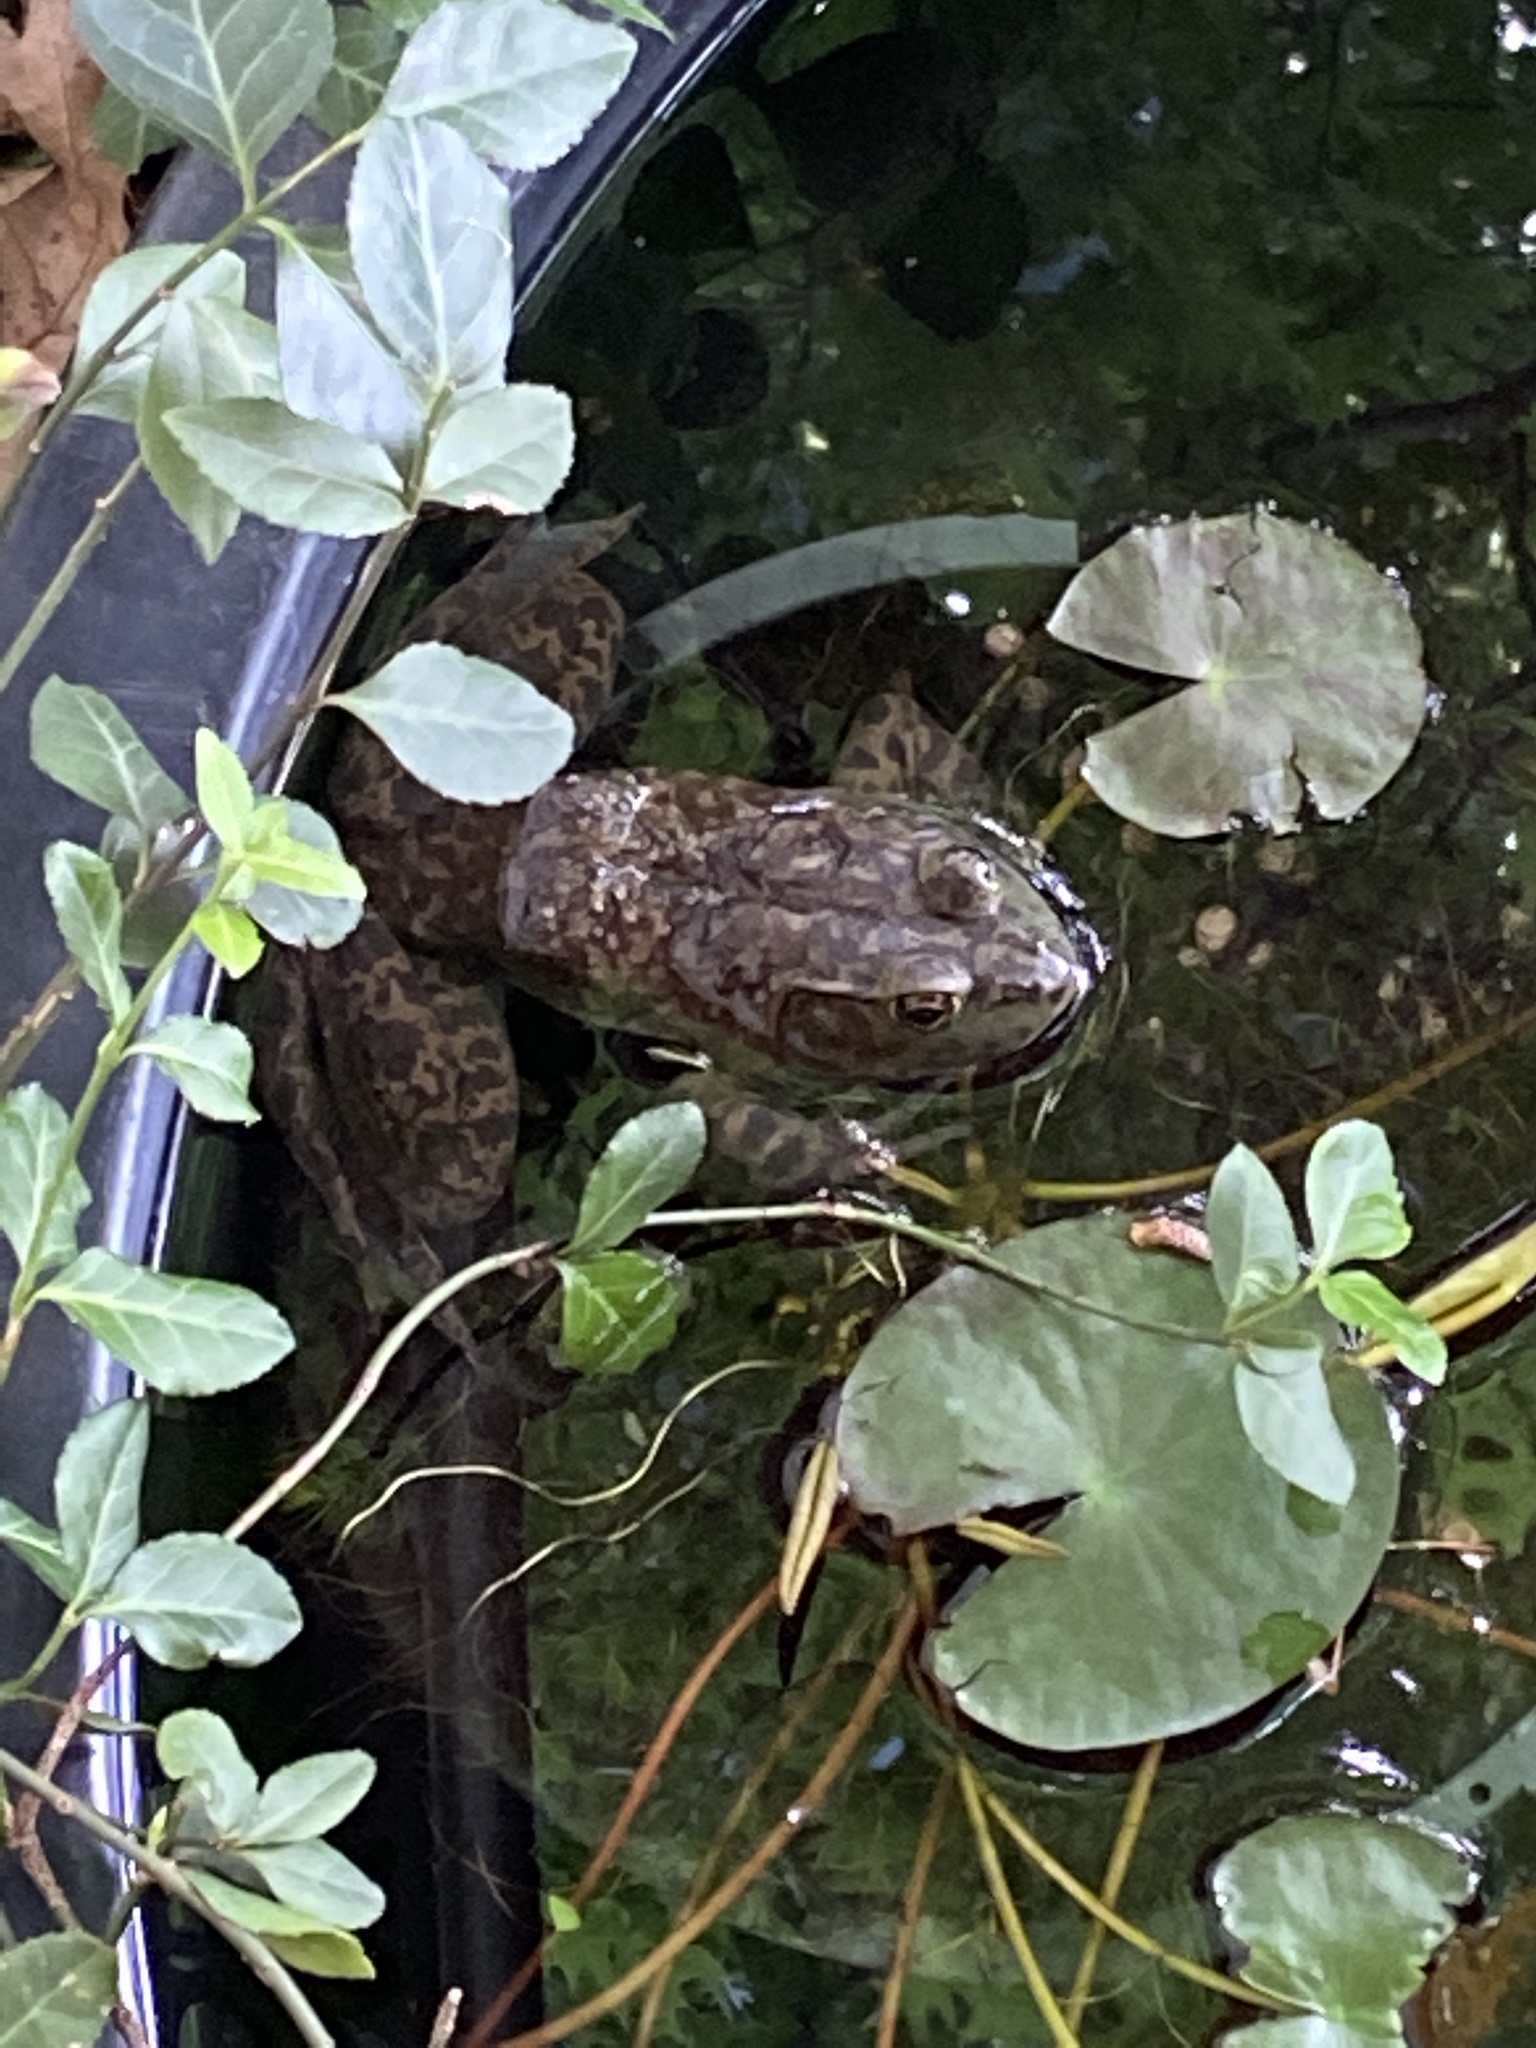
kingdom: Animalia
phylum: Chordata
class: Amphibia
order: Anura
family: Ranidae
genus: Lithobates
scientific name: Lithobates catesbeianus
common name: American bullfrog
